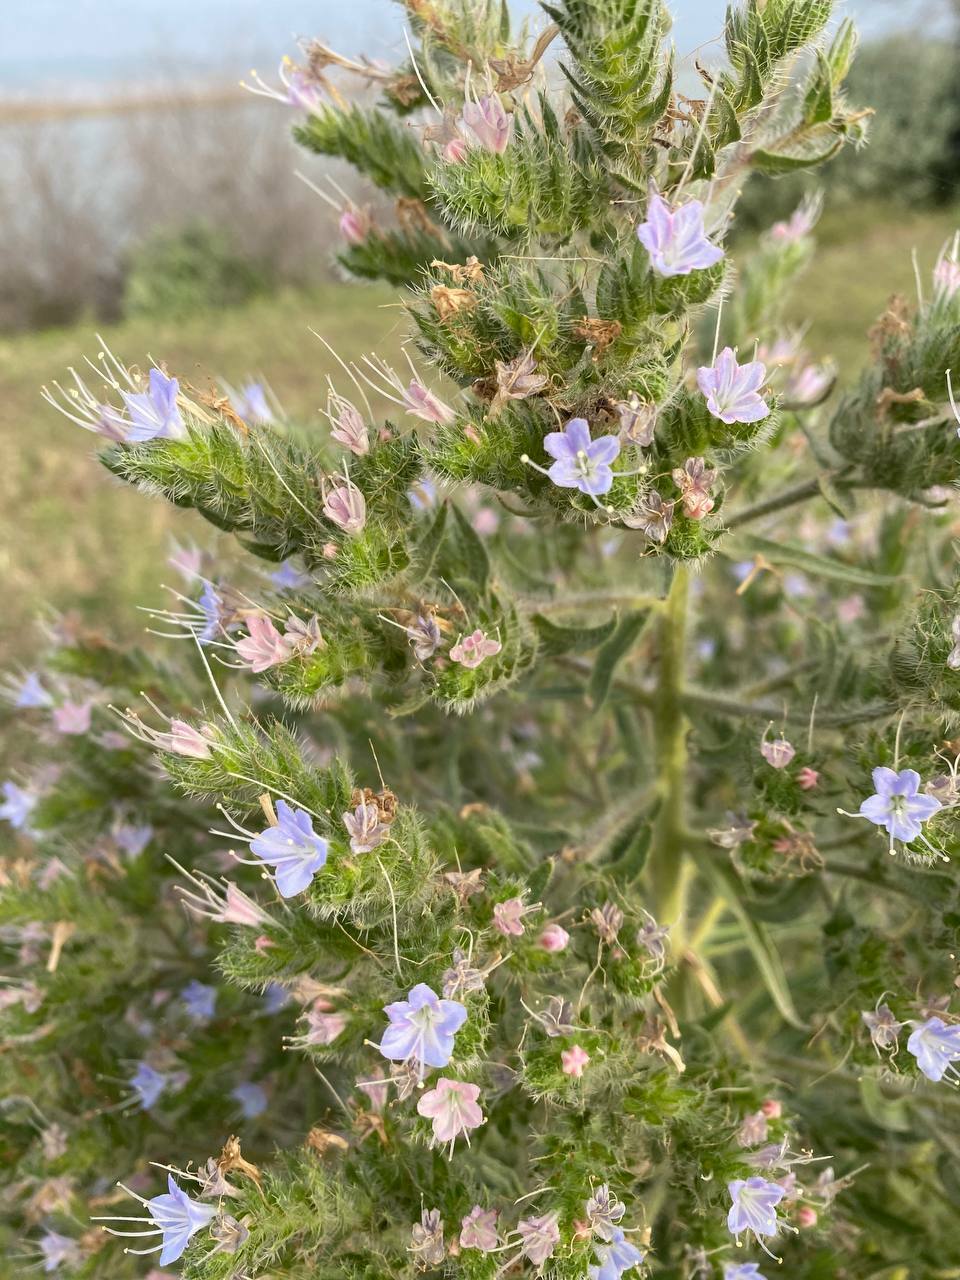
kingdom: Plantae
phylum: Tracheophyta
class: Magnoliopsida
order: Boraginales
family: Boraginaceae
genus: Echium
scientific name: Echium vulgare
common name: Common viper's bugloss
